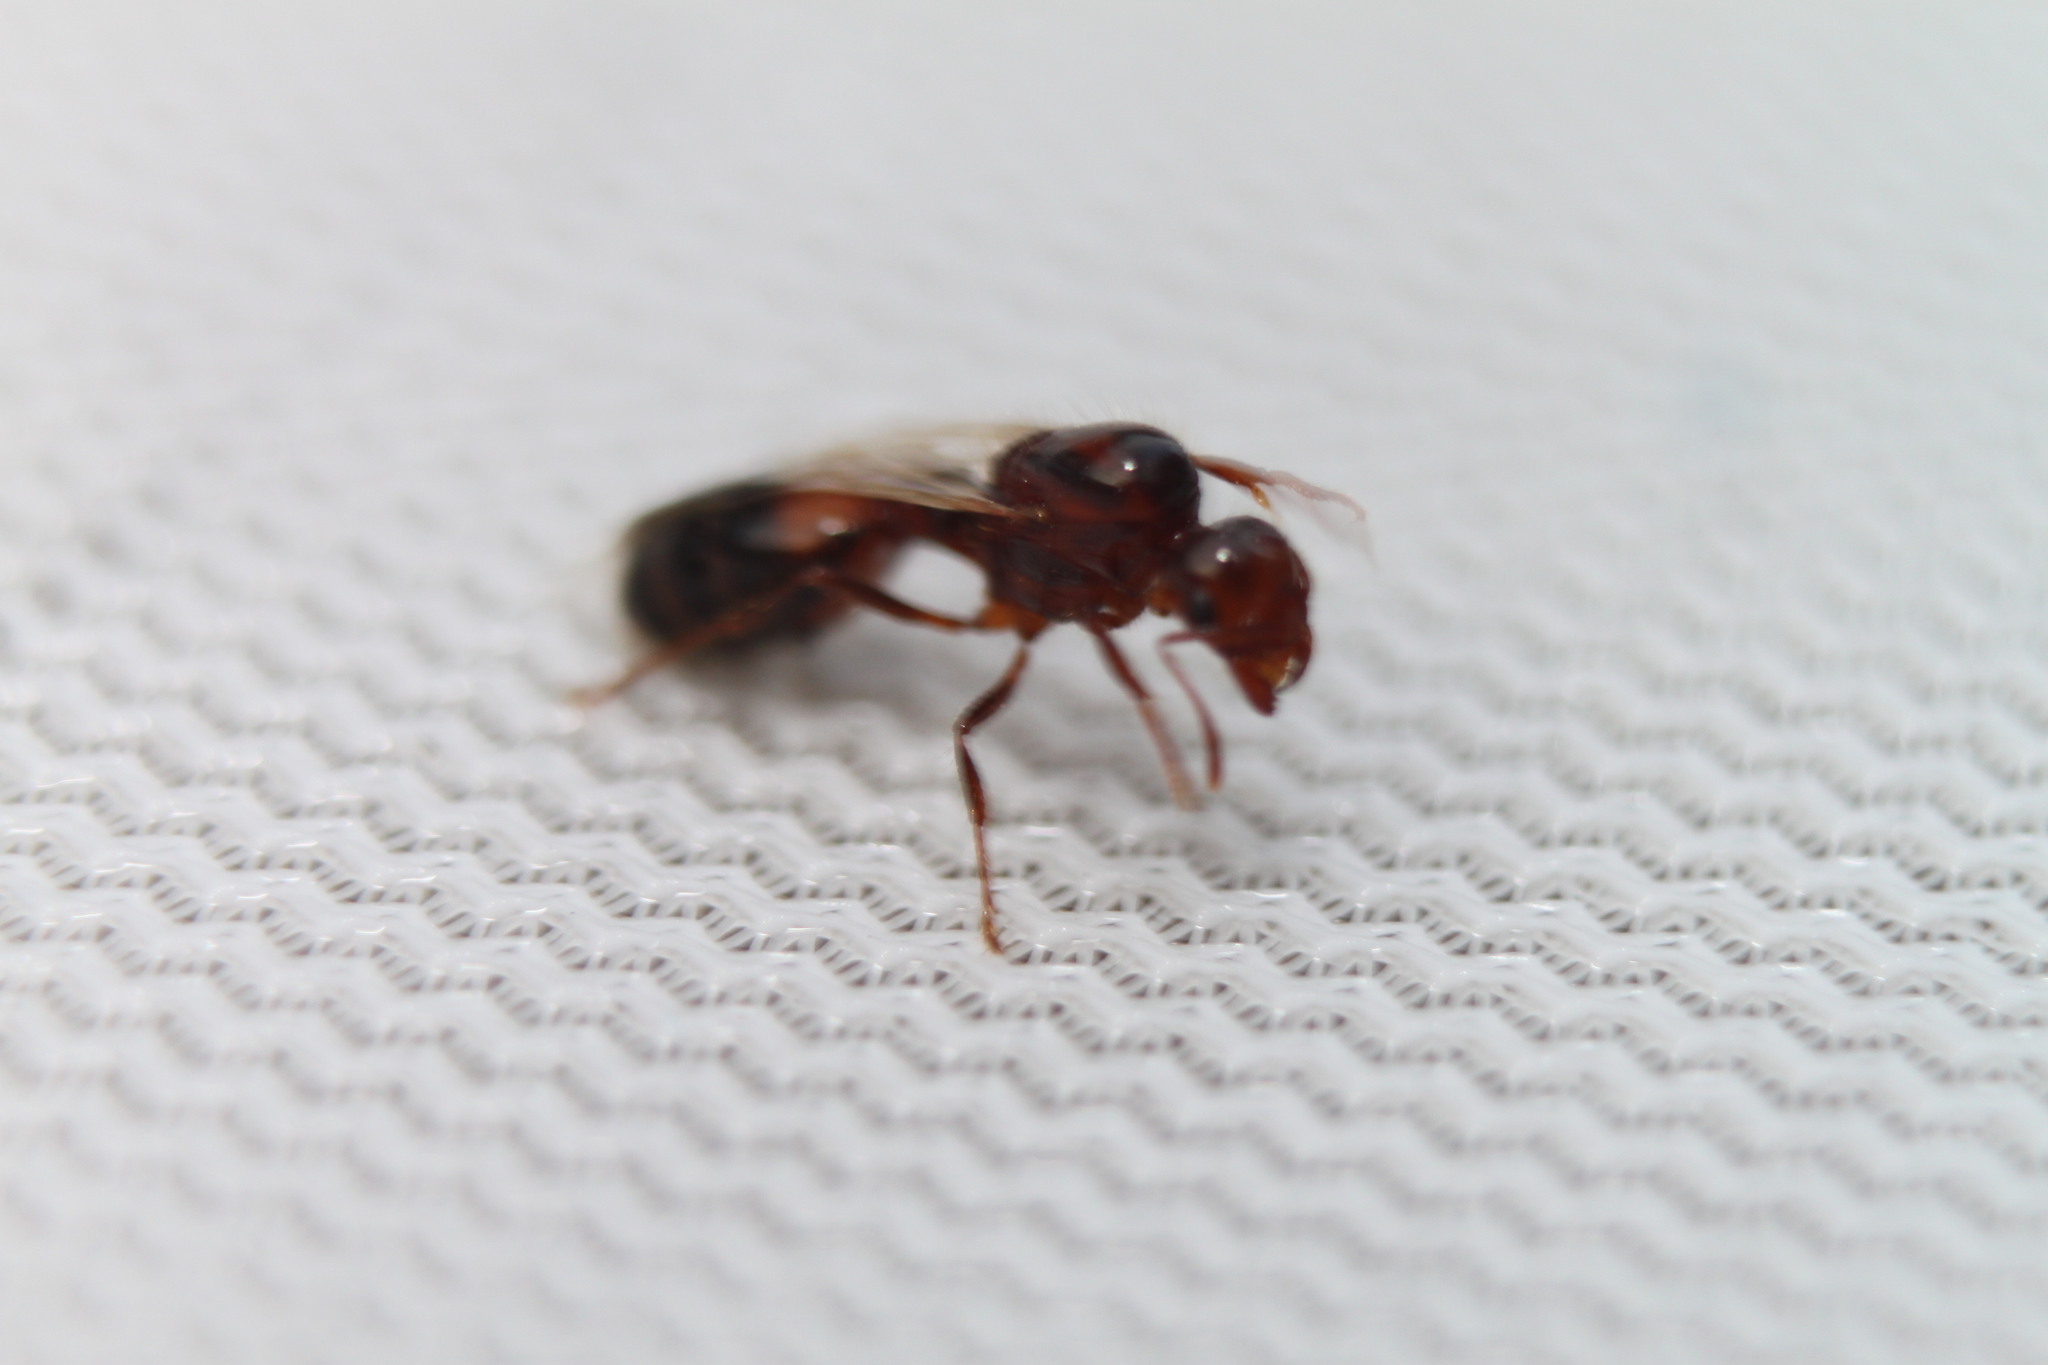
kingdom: Animalia
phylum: Arthropoda
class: Insecta
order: Hymenoptera
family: Formicidae
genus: Solenopsis
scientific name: Solenopsis invicta
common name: Red imported fire ant
